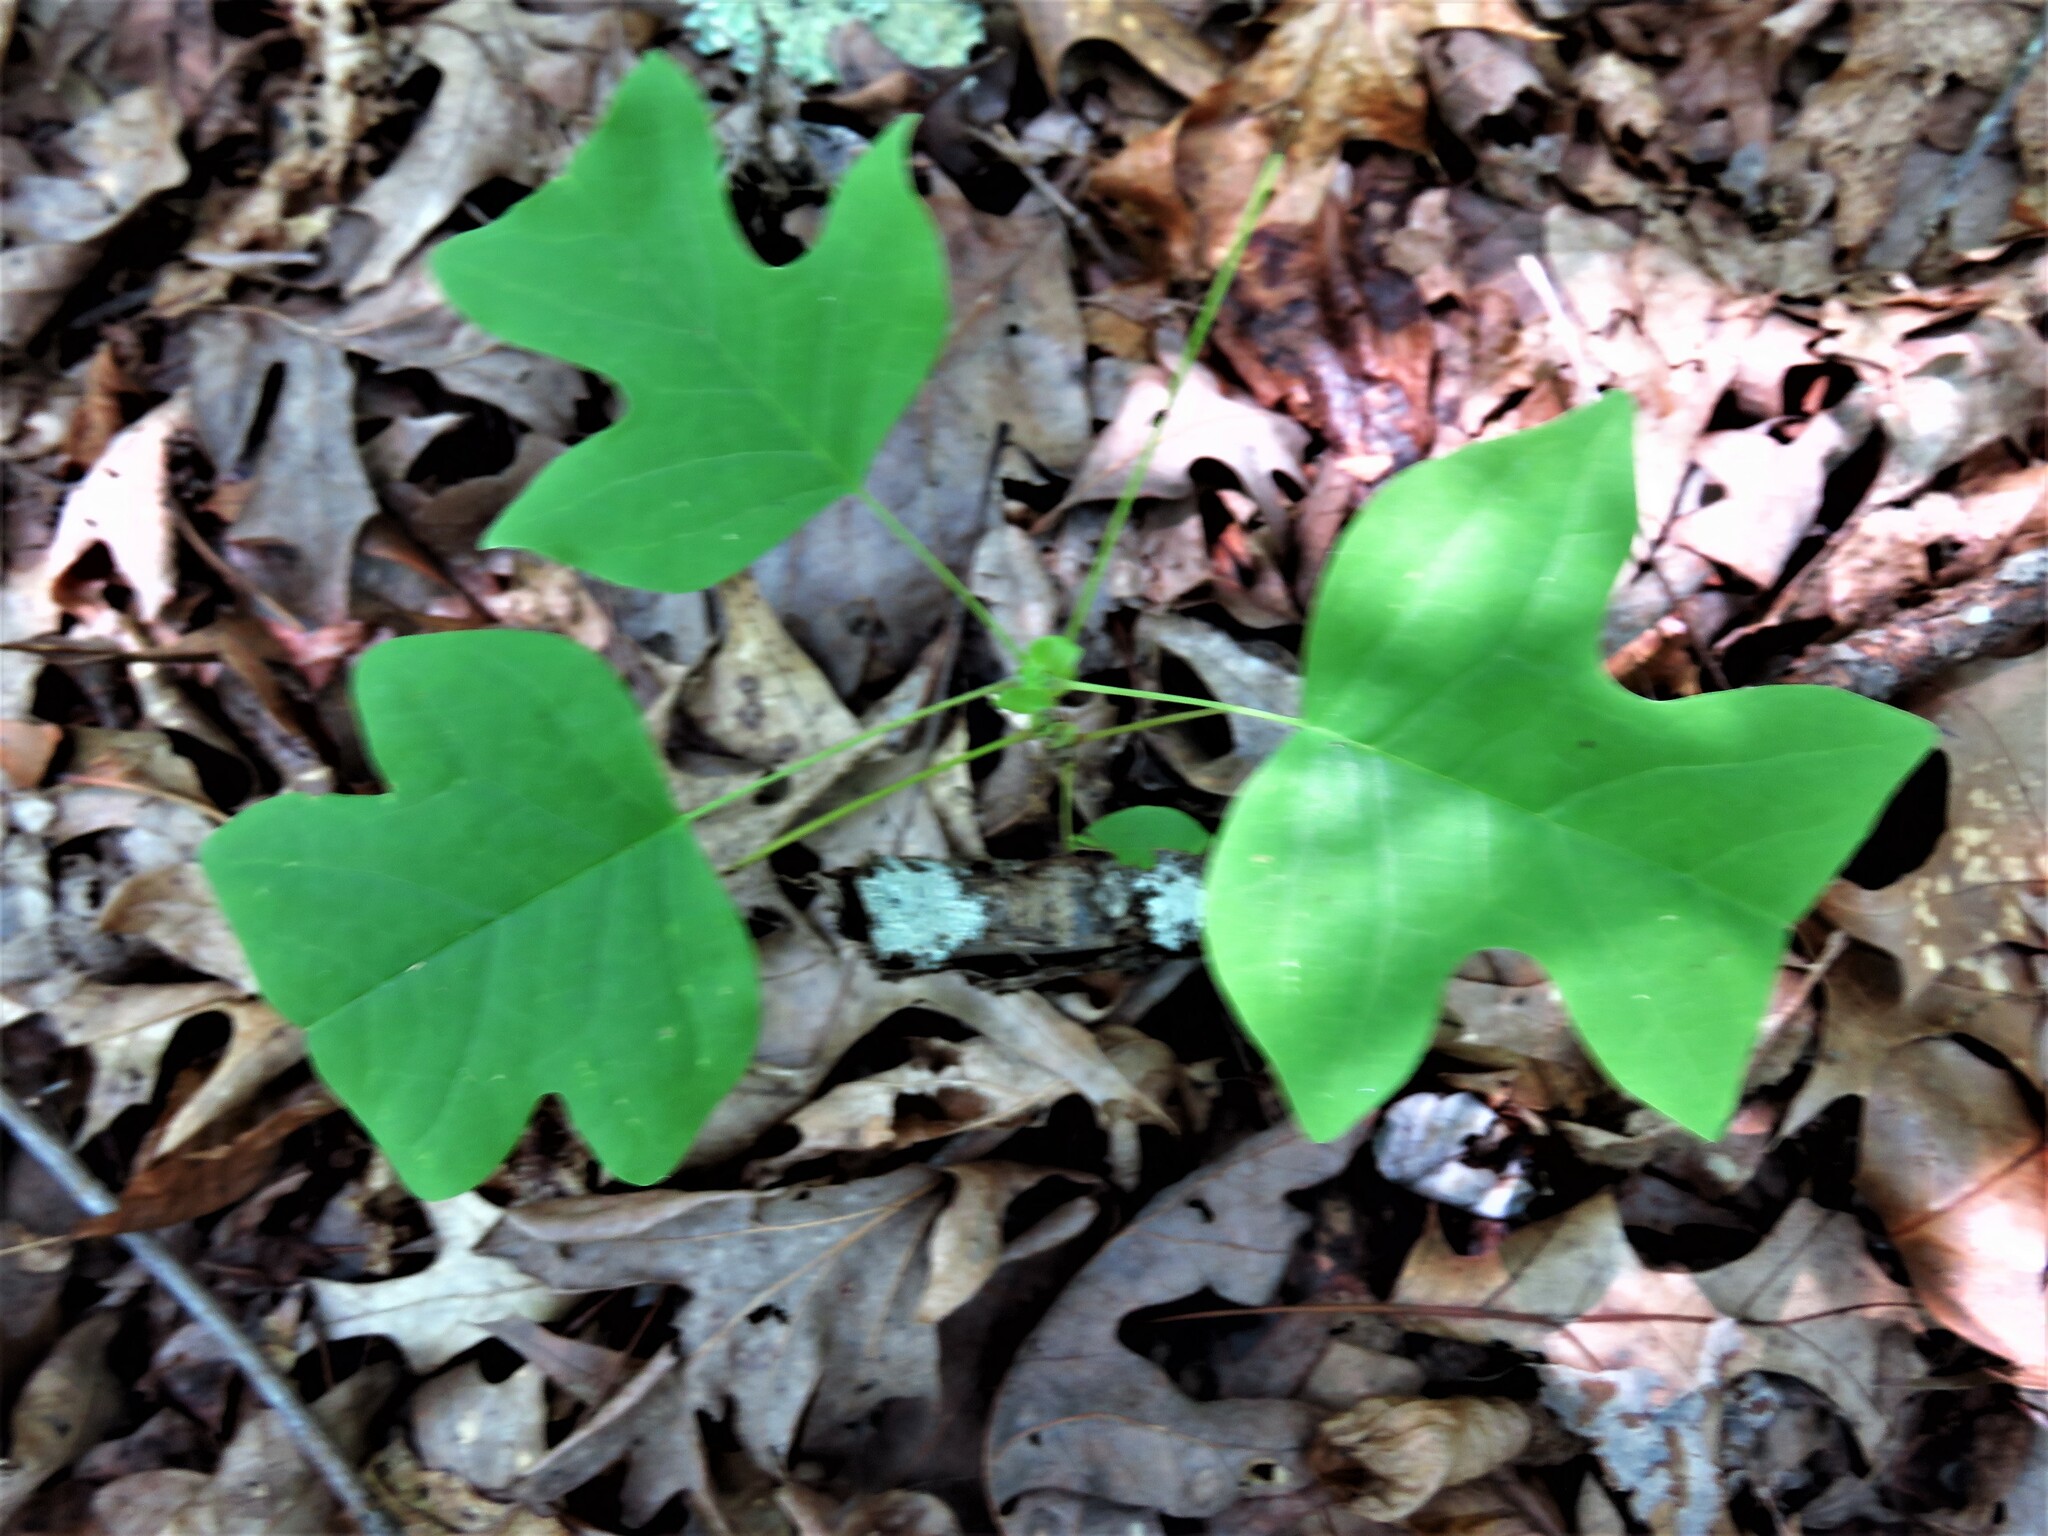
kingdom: Plantae
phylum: Tracheophyta
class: Magnoliopsida
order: Magnoliales
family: Magnoliaceae
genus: Liriodendron
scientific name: Liriodendron tulipifera
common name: Tulip tree
